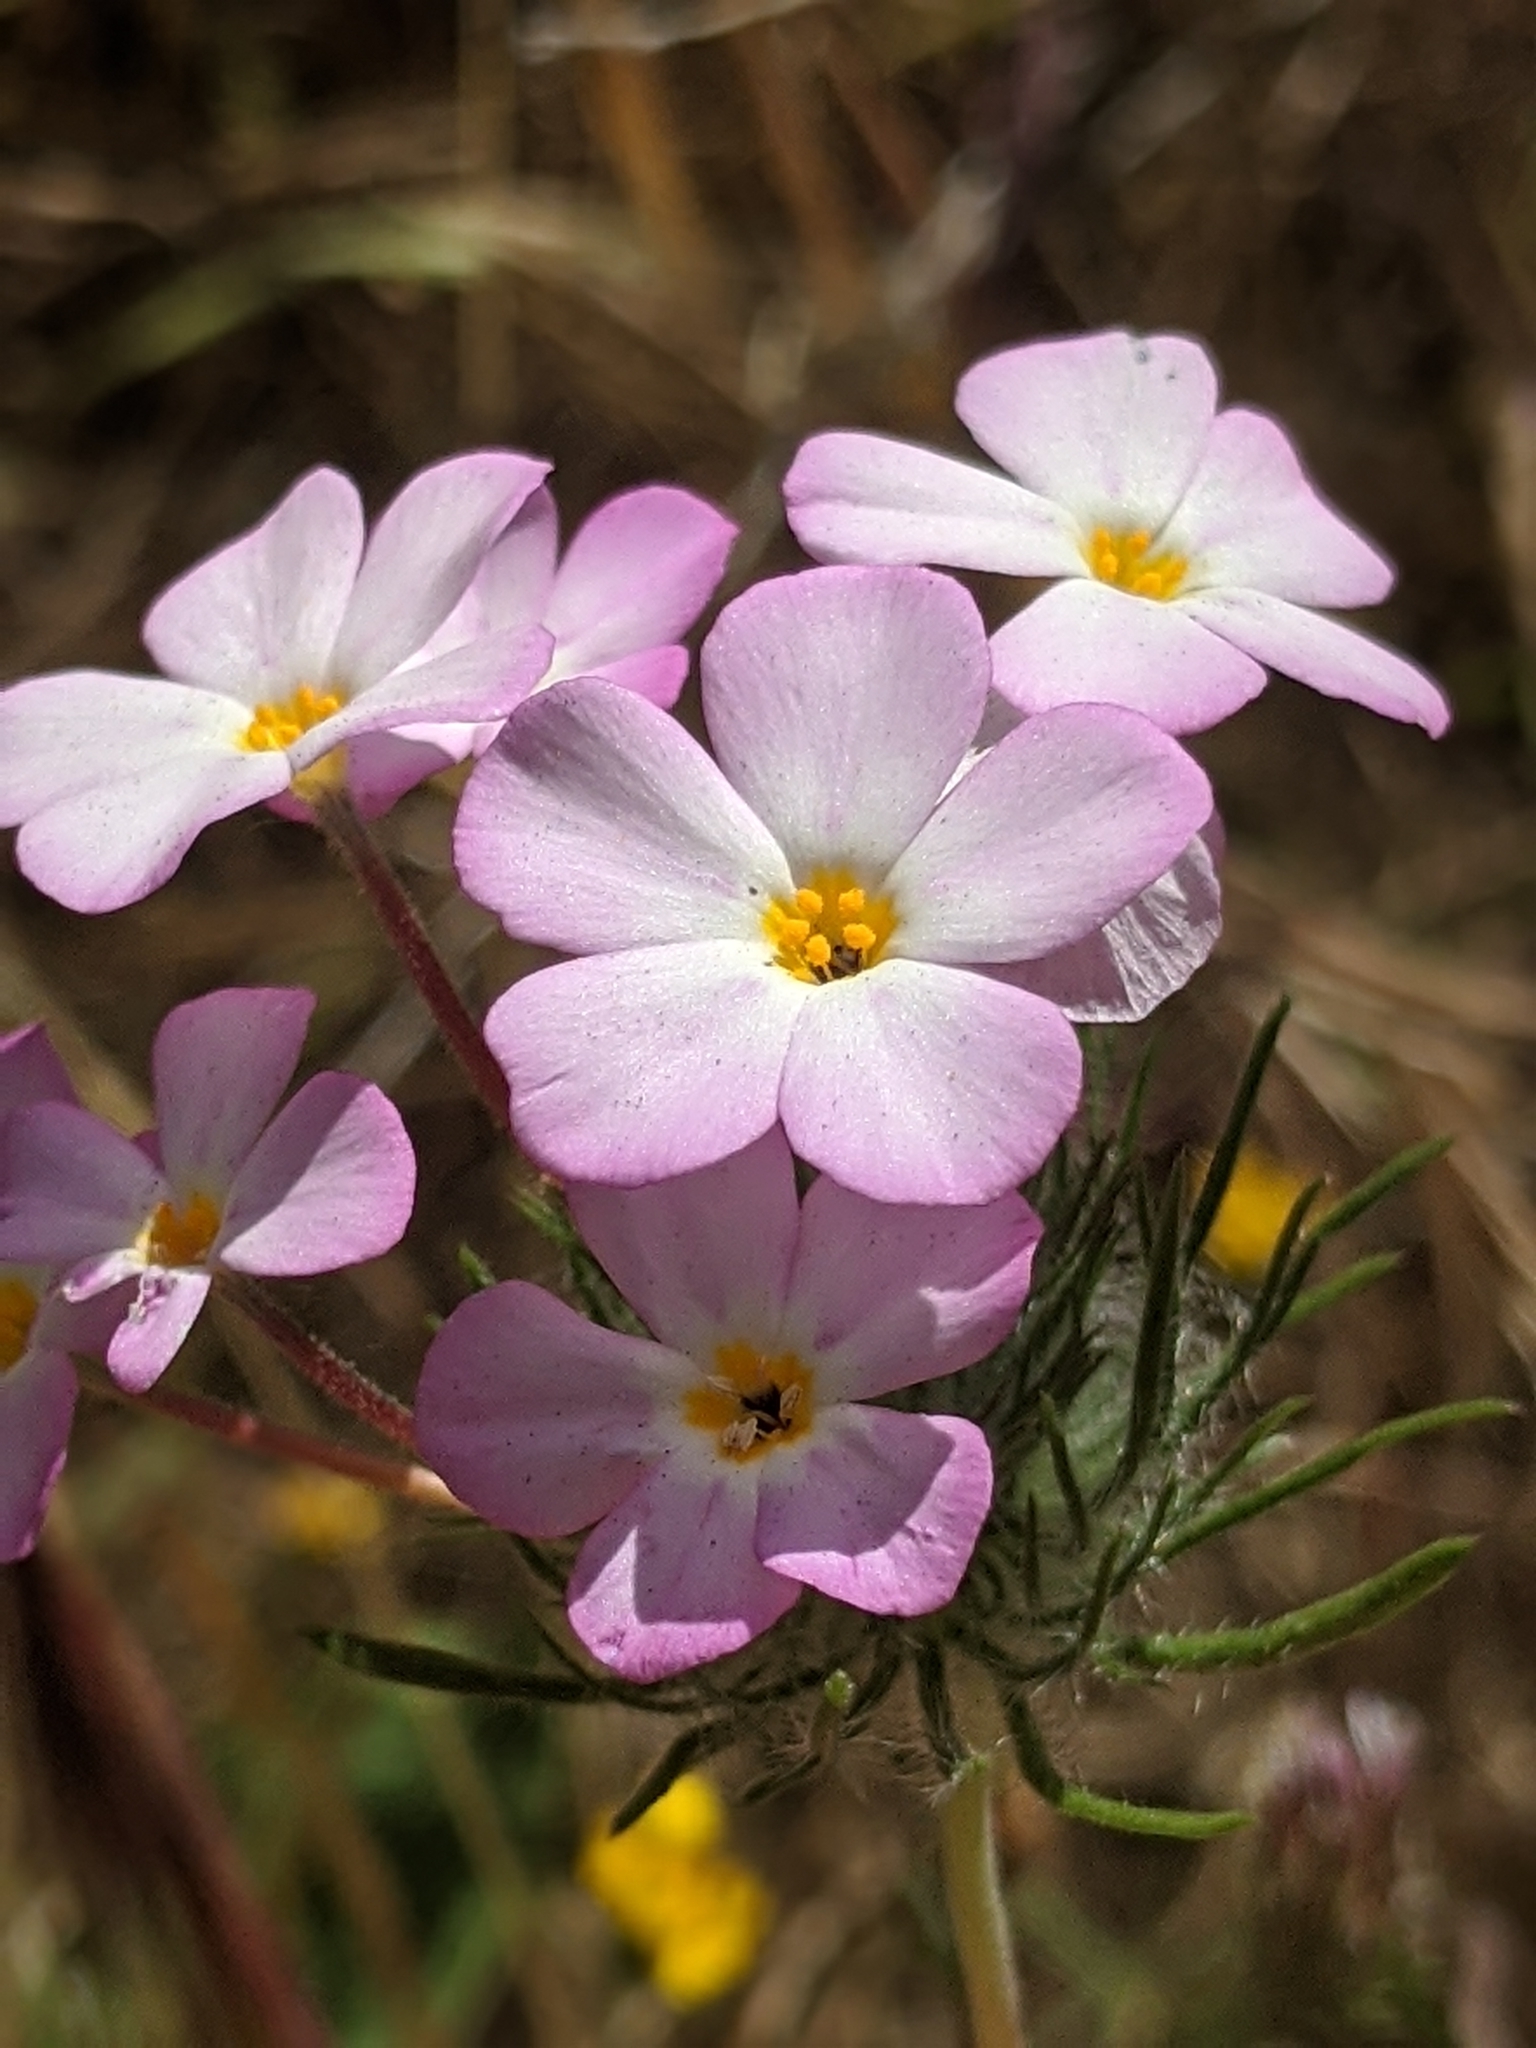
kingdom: Plantae
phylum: Tracheophyta
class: Magnoliopsida
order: Ericales
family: Polemoniaceae
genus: Leptosiphon
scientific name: Leptosiphon montanus
